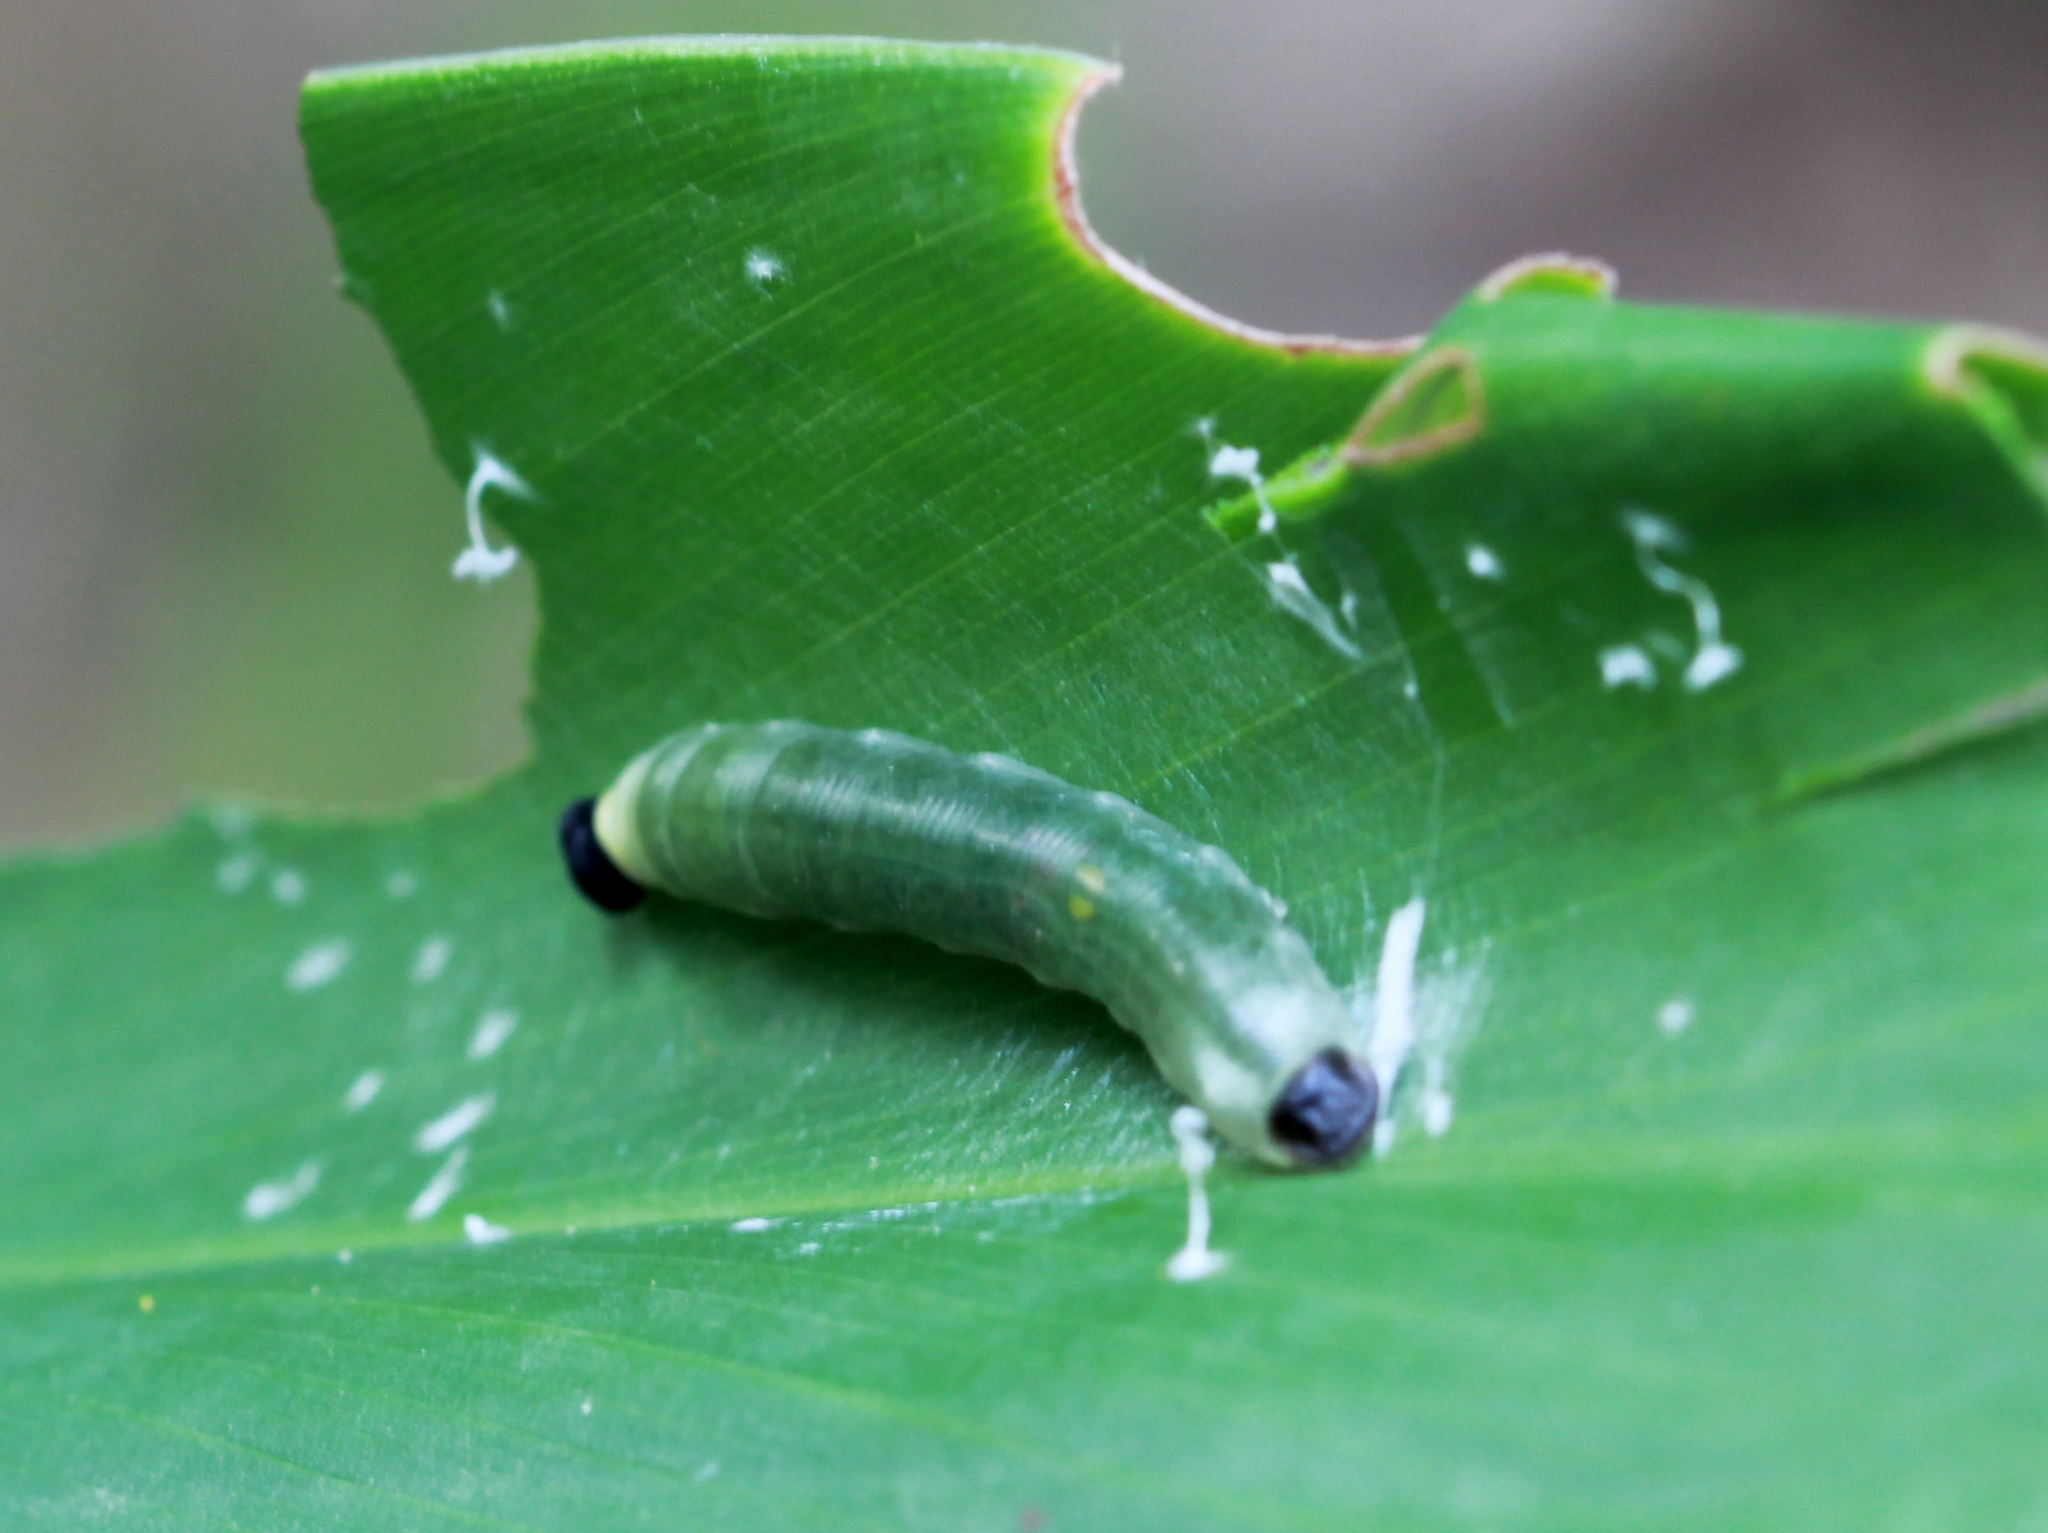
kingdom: Animalia
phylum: Arthropoda
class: Insecta
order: Lepidoptera
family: Hesperiidae
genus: Udaspes
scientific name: Udaspes folus
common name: Grass demon
